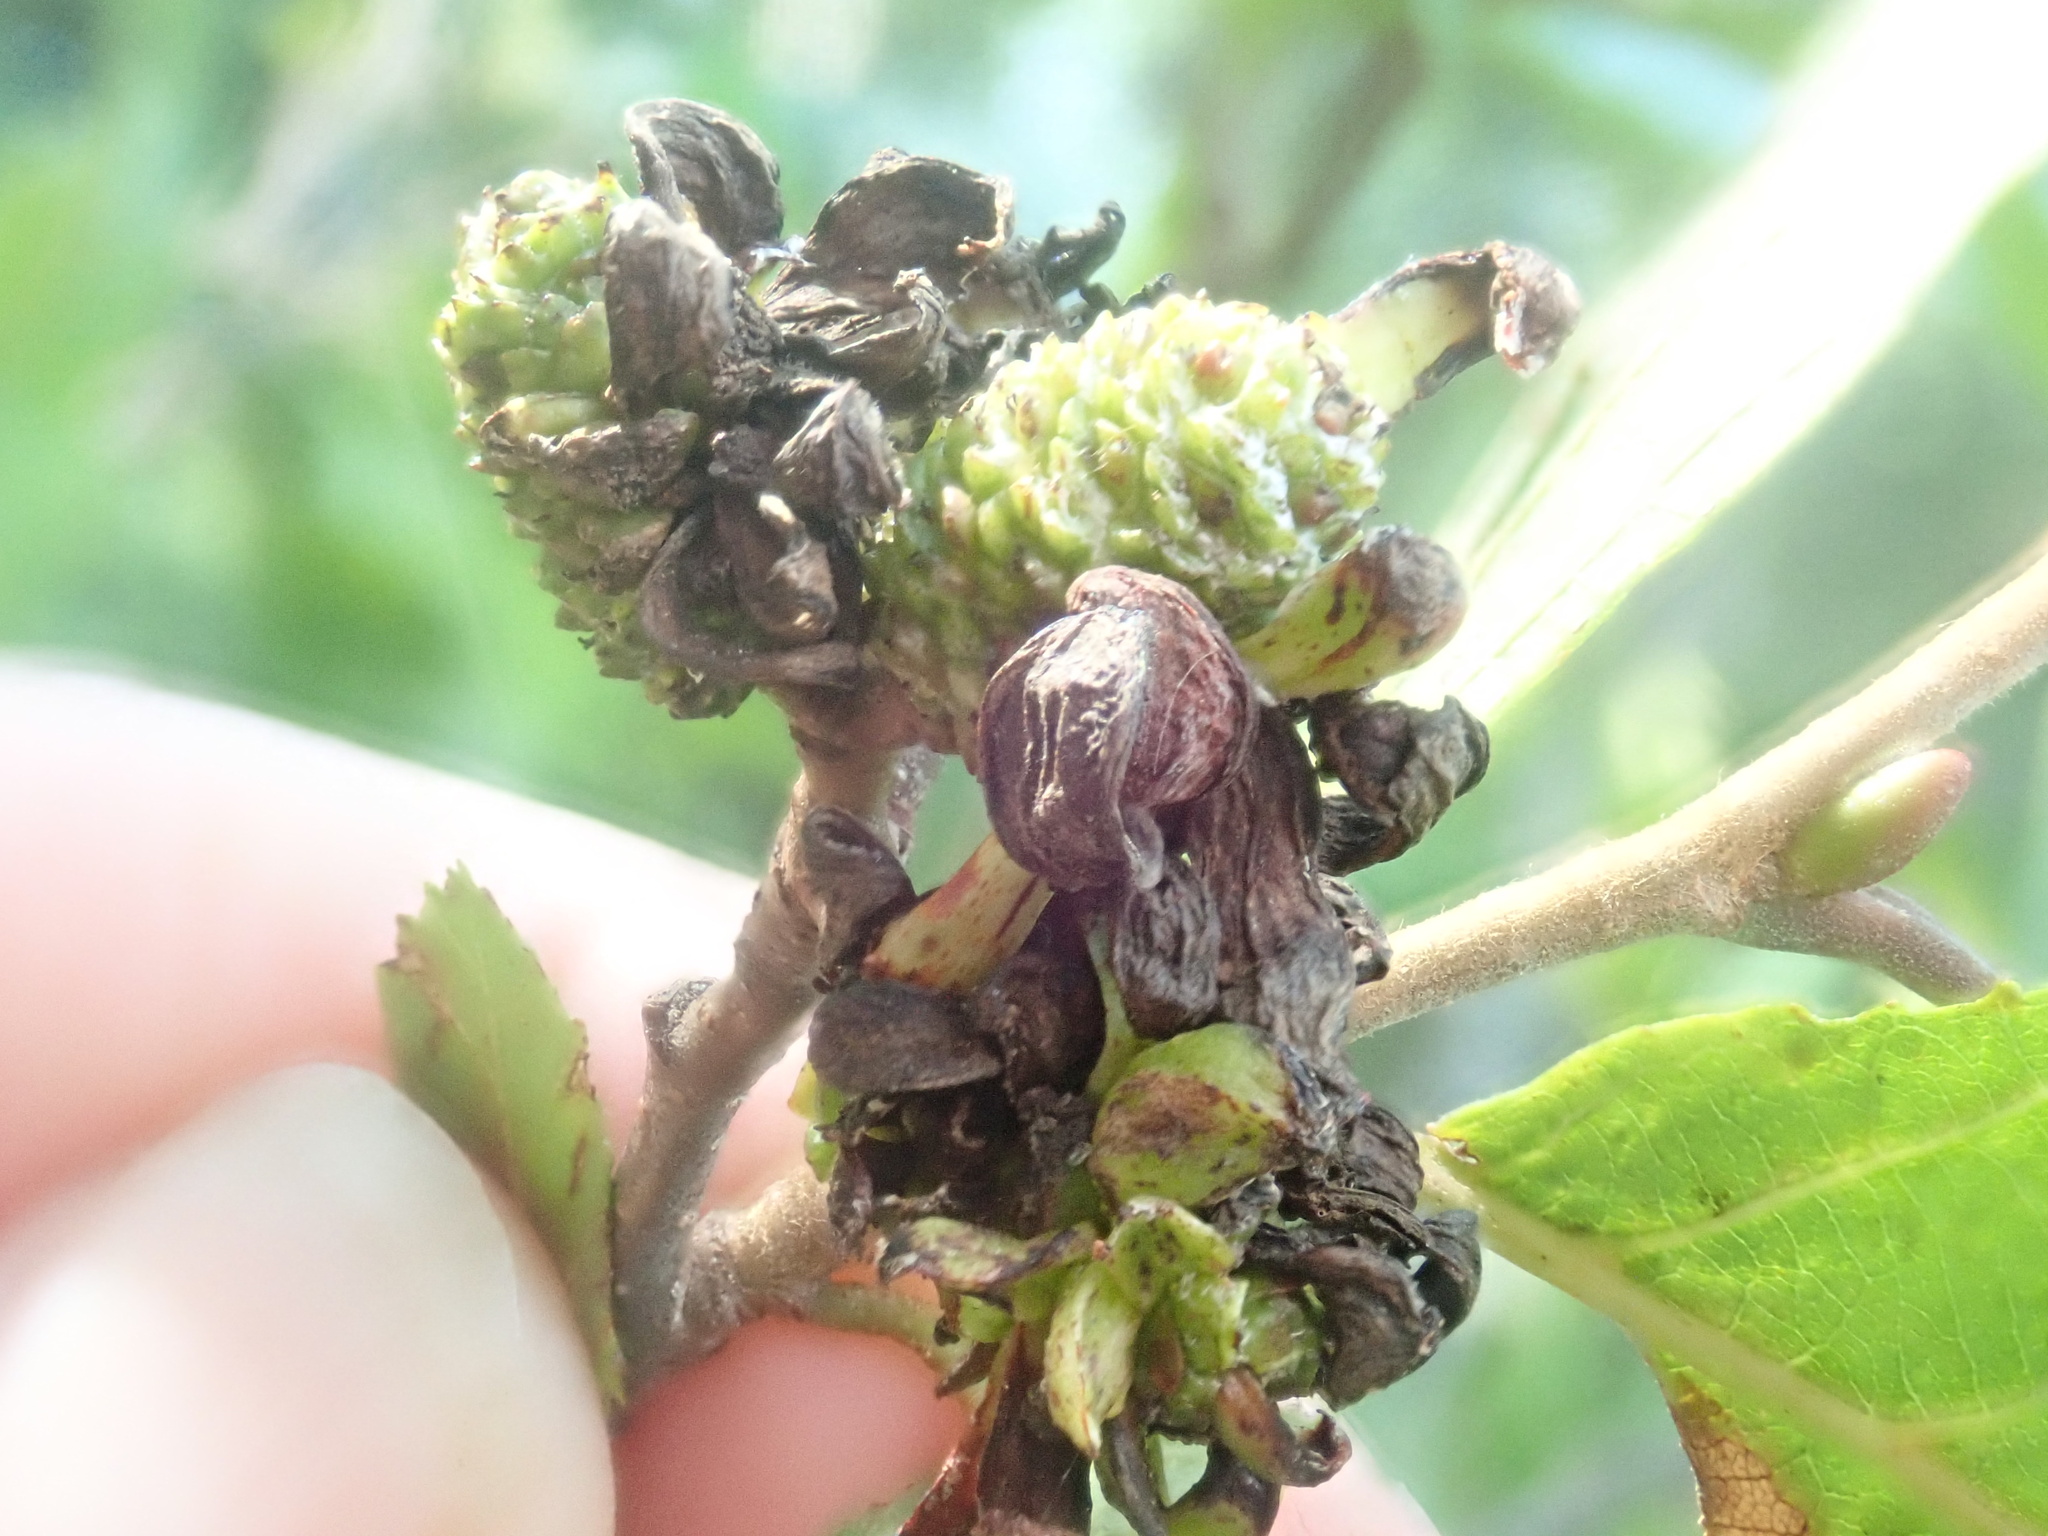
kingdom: Fungi
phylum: Ascomycota
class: Taphrinomycetes
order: Taphrinales
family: Taphrinaceae
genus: Taphrina
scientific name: Taphrina robinsoniana
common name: Eastern american alder tongue gall fungus
